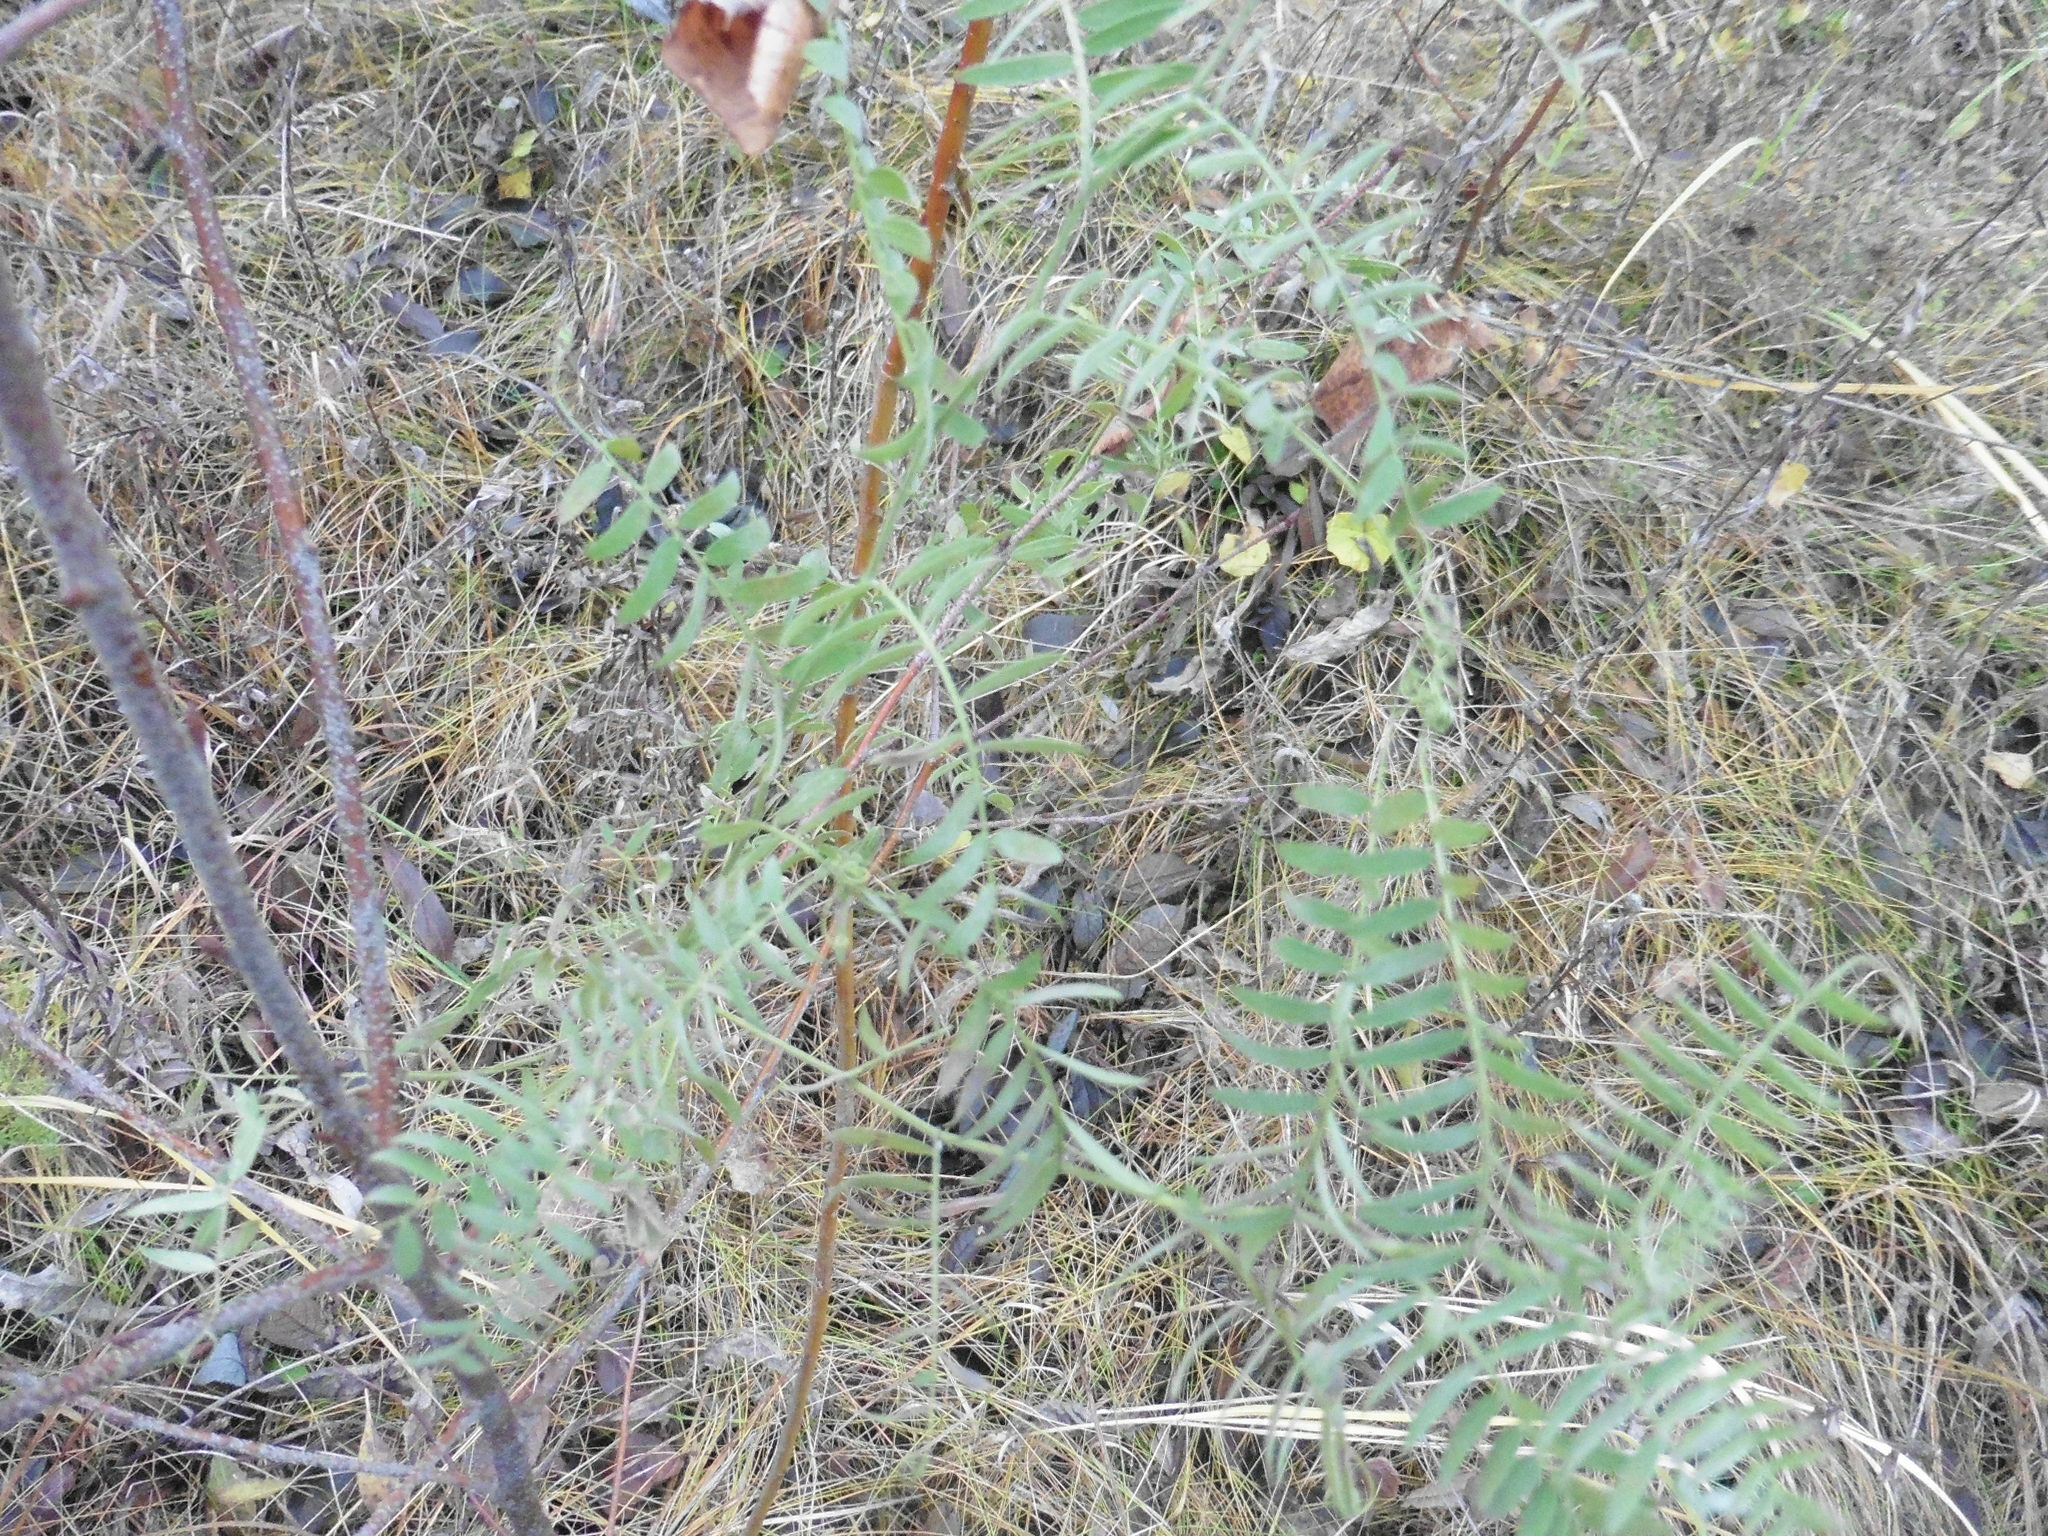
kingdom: Plantae
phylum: Tracheophyta
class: Magnoliopsida
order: Fabales
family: Fabaceae
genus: Vicia
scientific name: Vicia cracca
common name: Bird vetch
